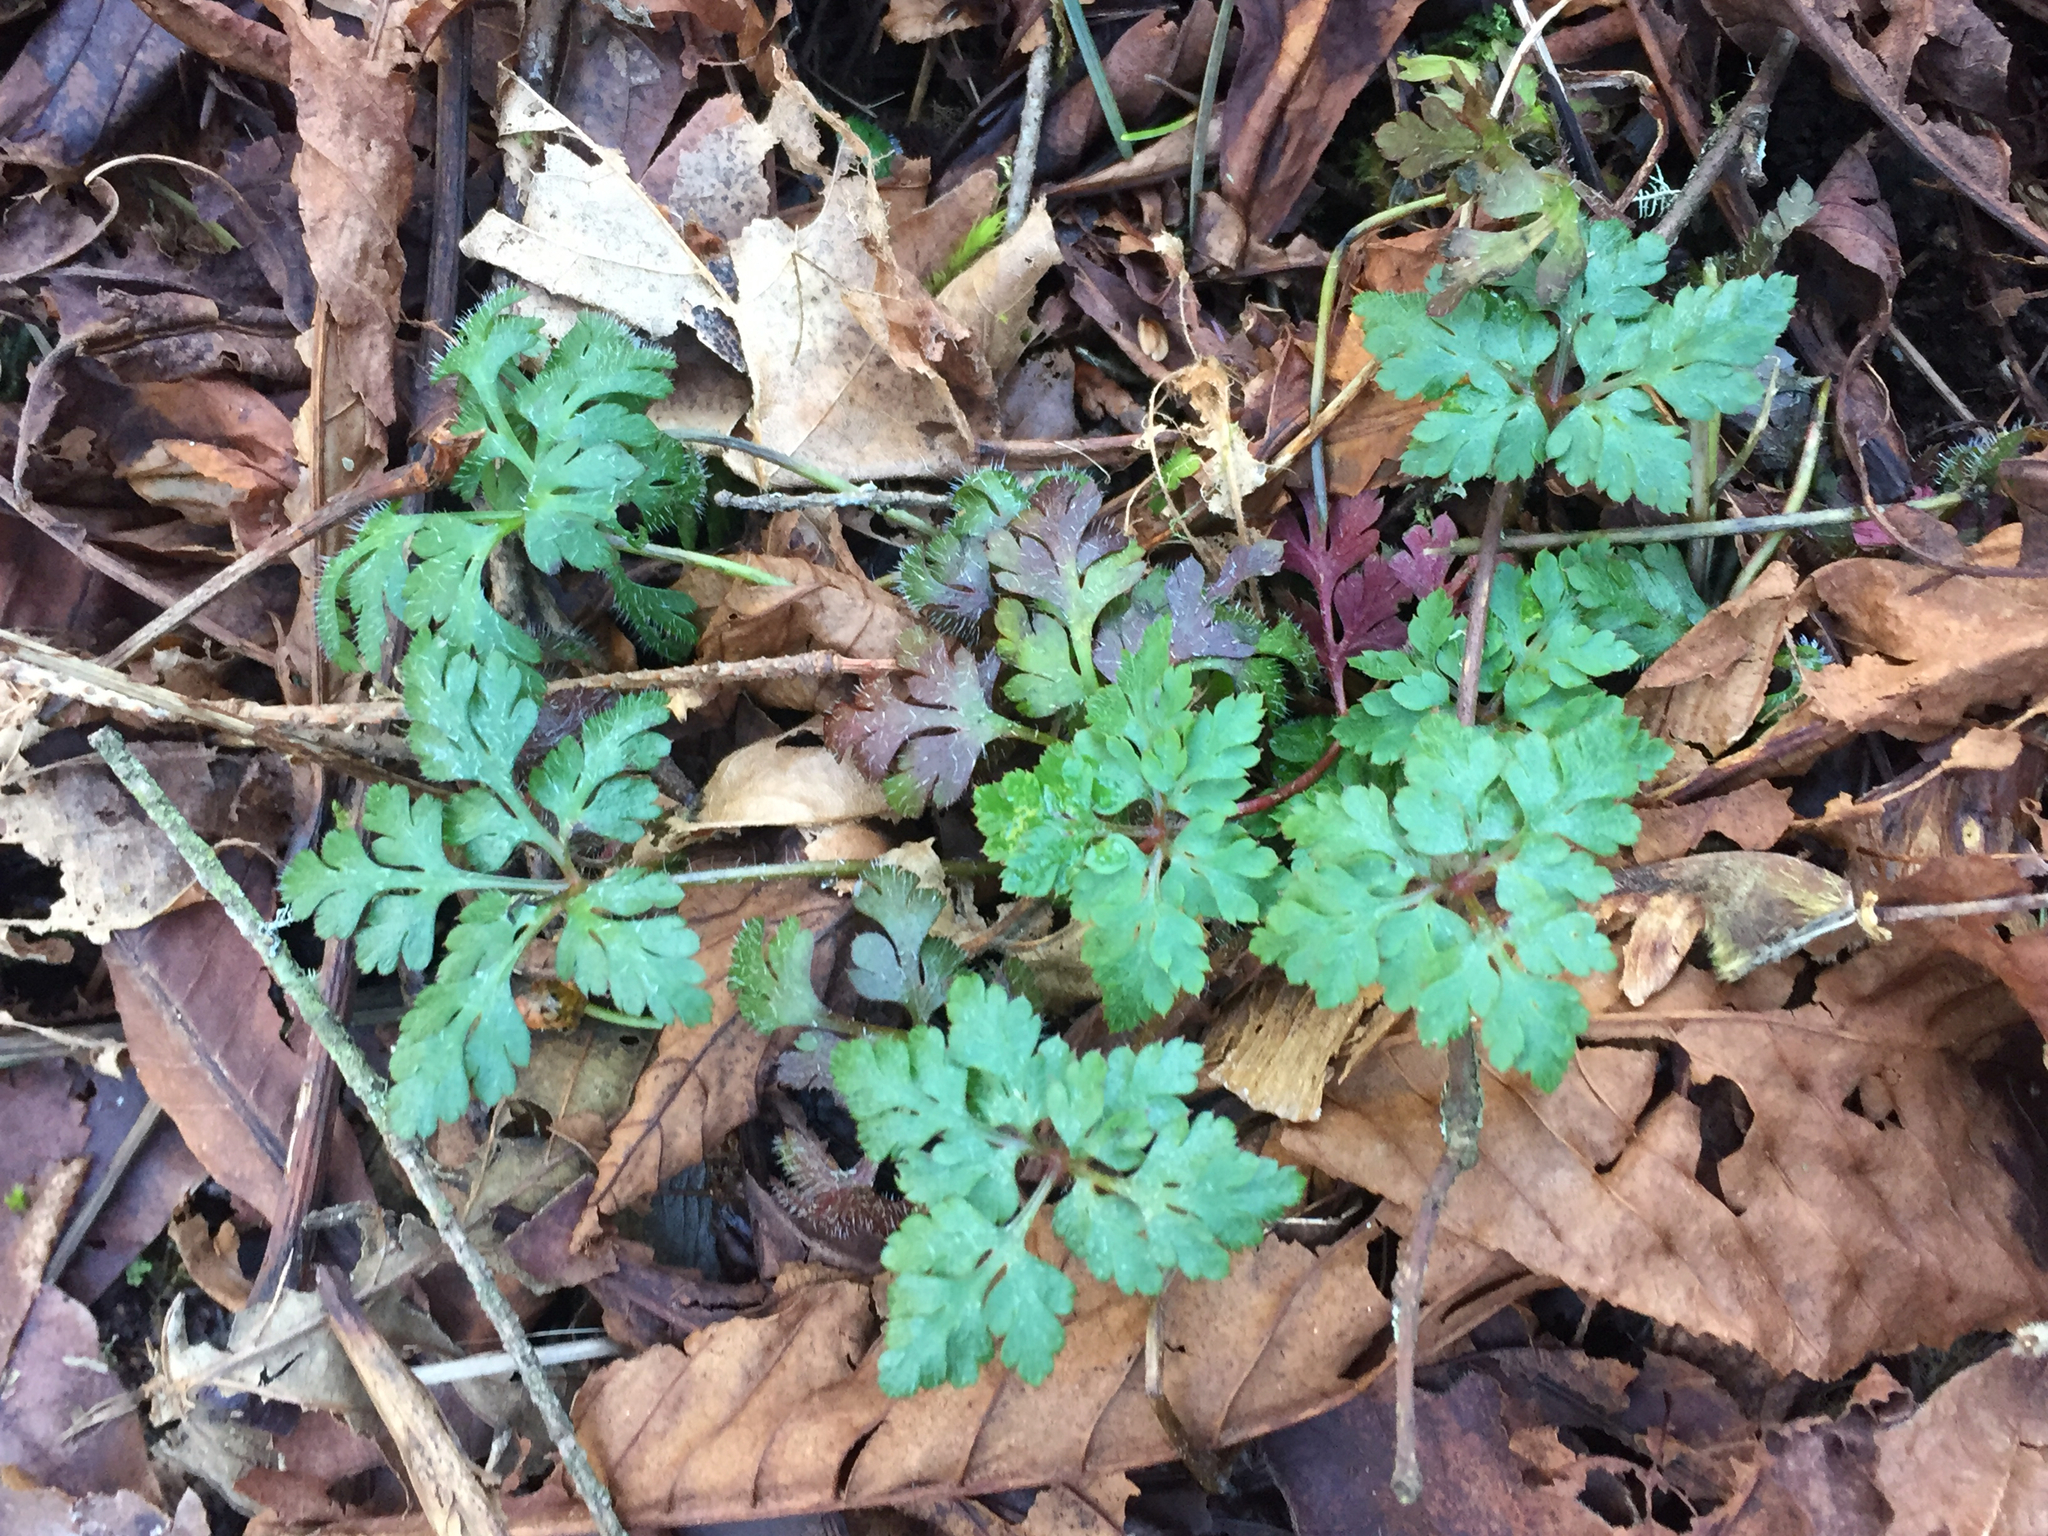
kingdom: Plantae
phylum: Tracheophyta
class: Magnoliopsida
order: Geraniales
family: Geraniaceae
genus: Geranium
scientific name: Geranium robertianum
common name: Herb-robert
